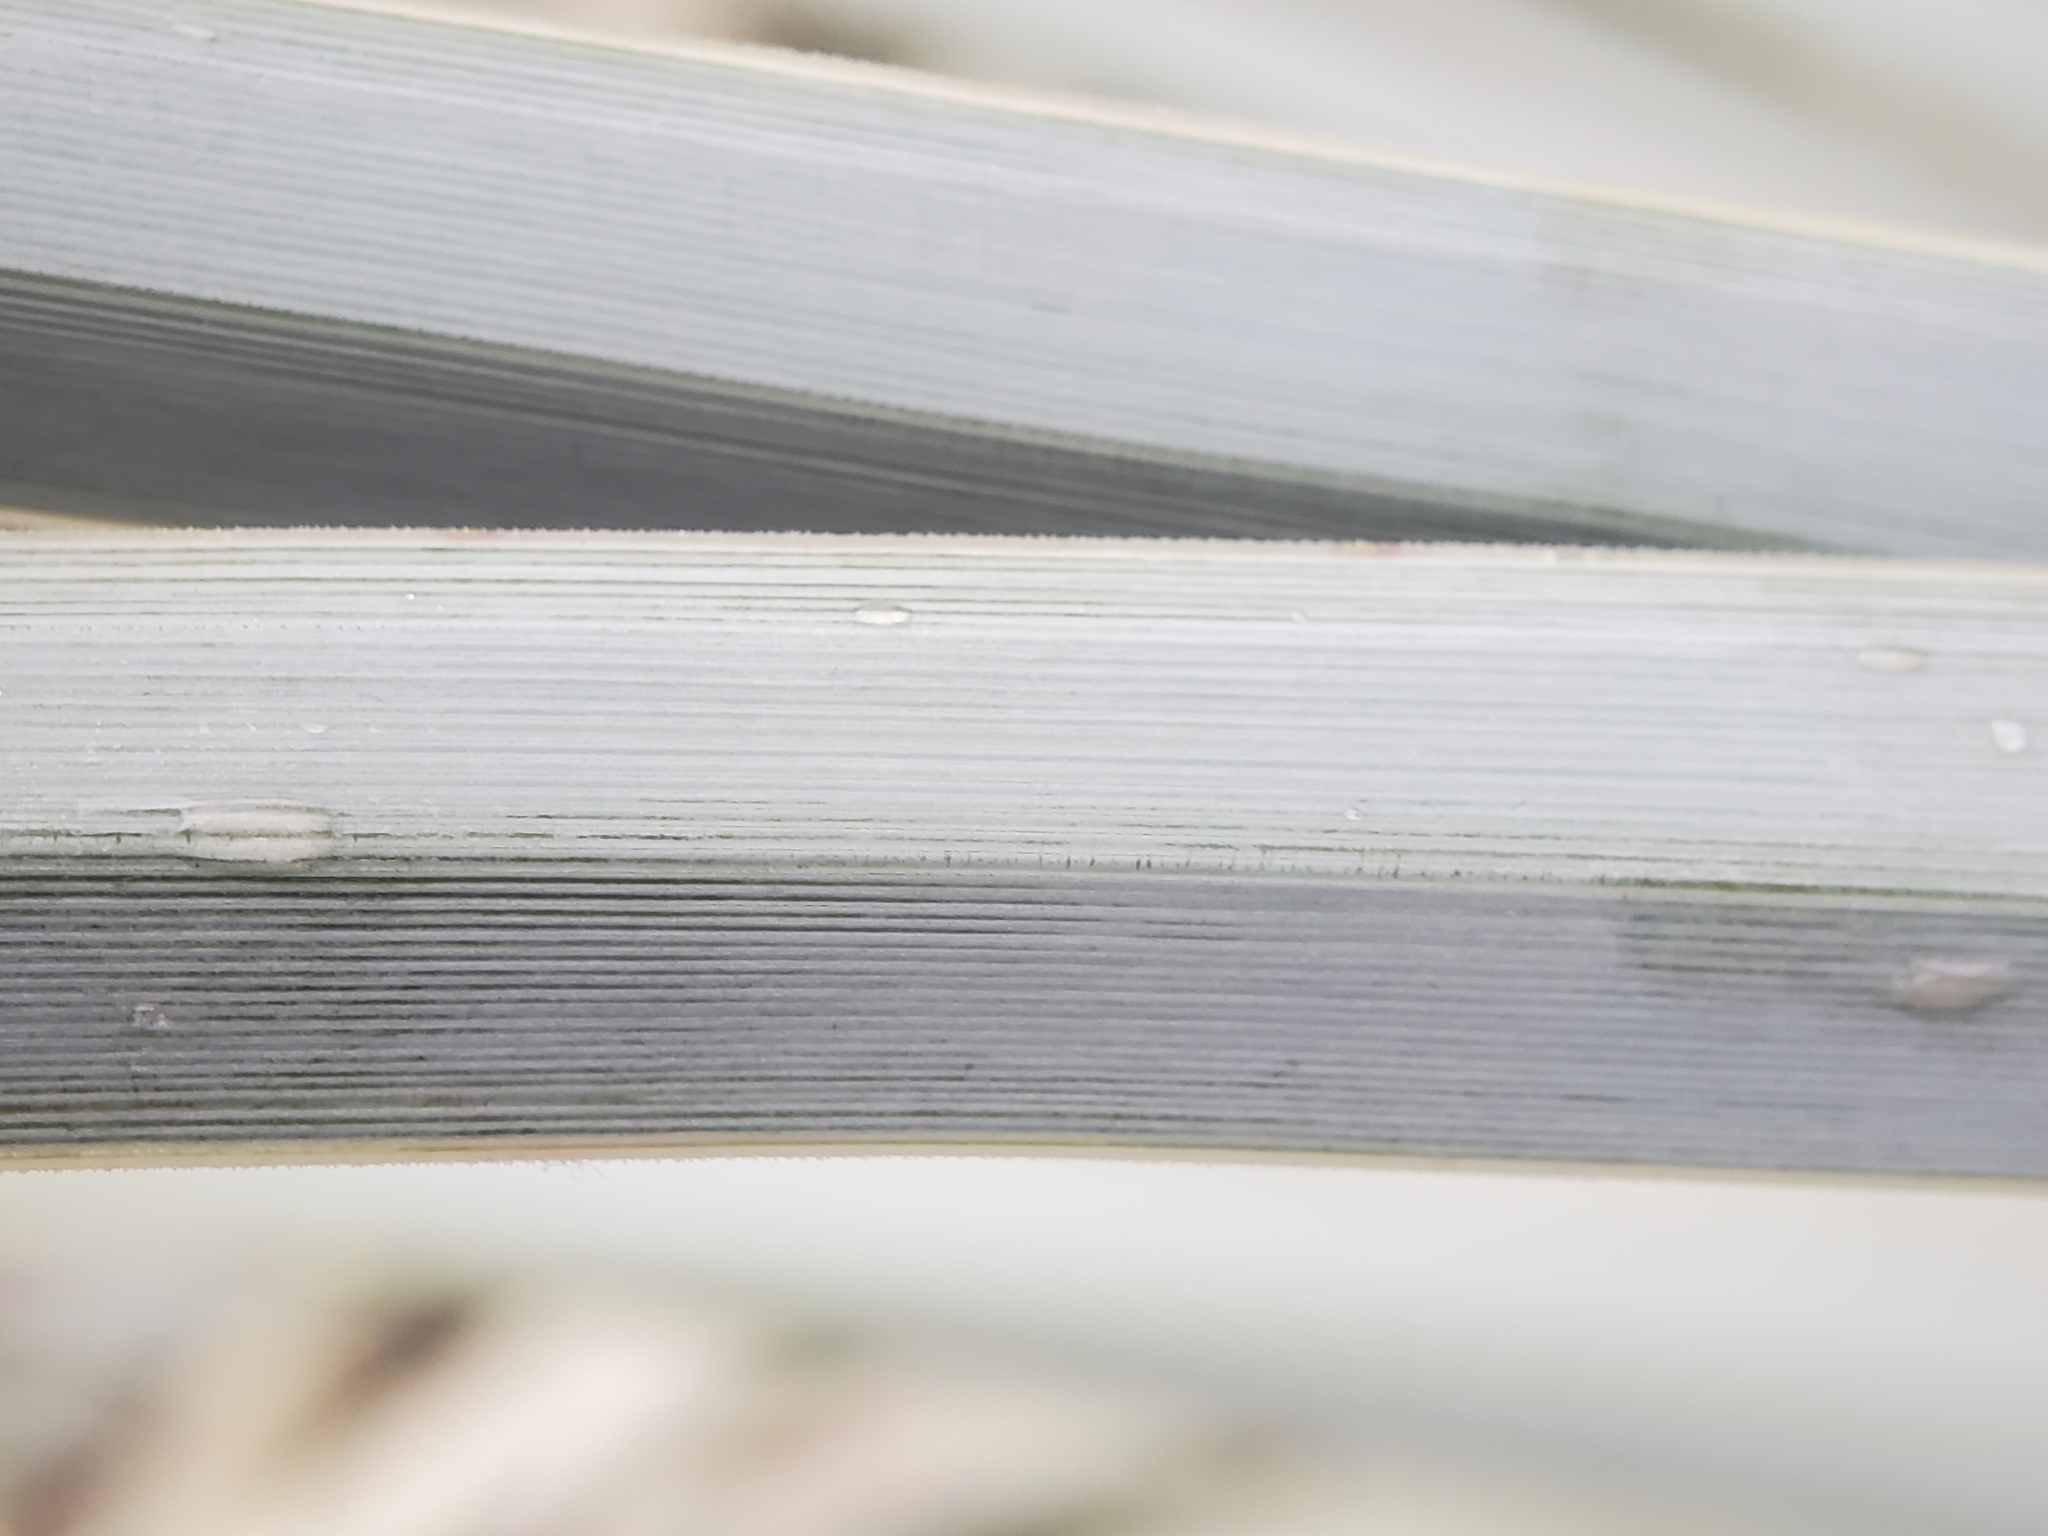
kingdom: Plantae
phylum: Tracheophyta
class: Liliopsida
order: Asparagales
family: Asparagaceae
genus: Hesperoyucca
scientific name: Hesperoyucca whipplei
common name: Our lord's-candle
